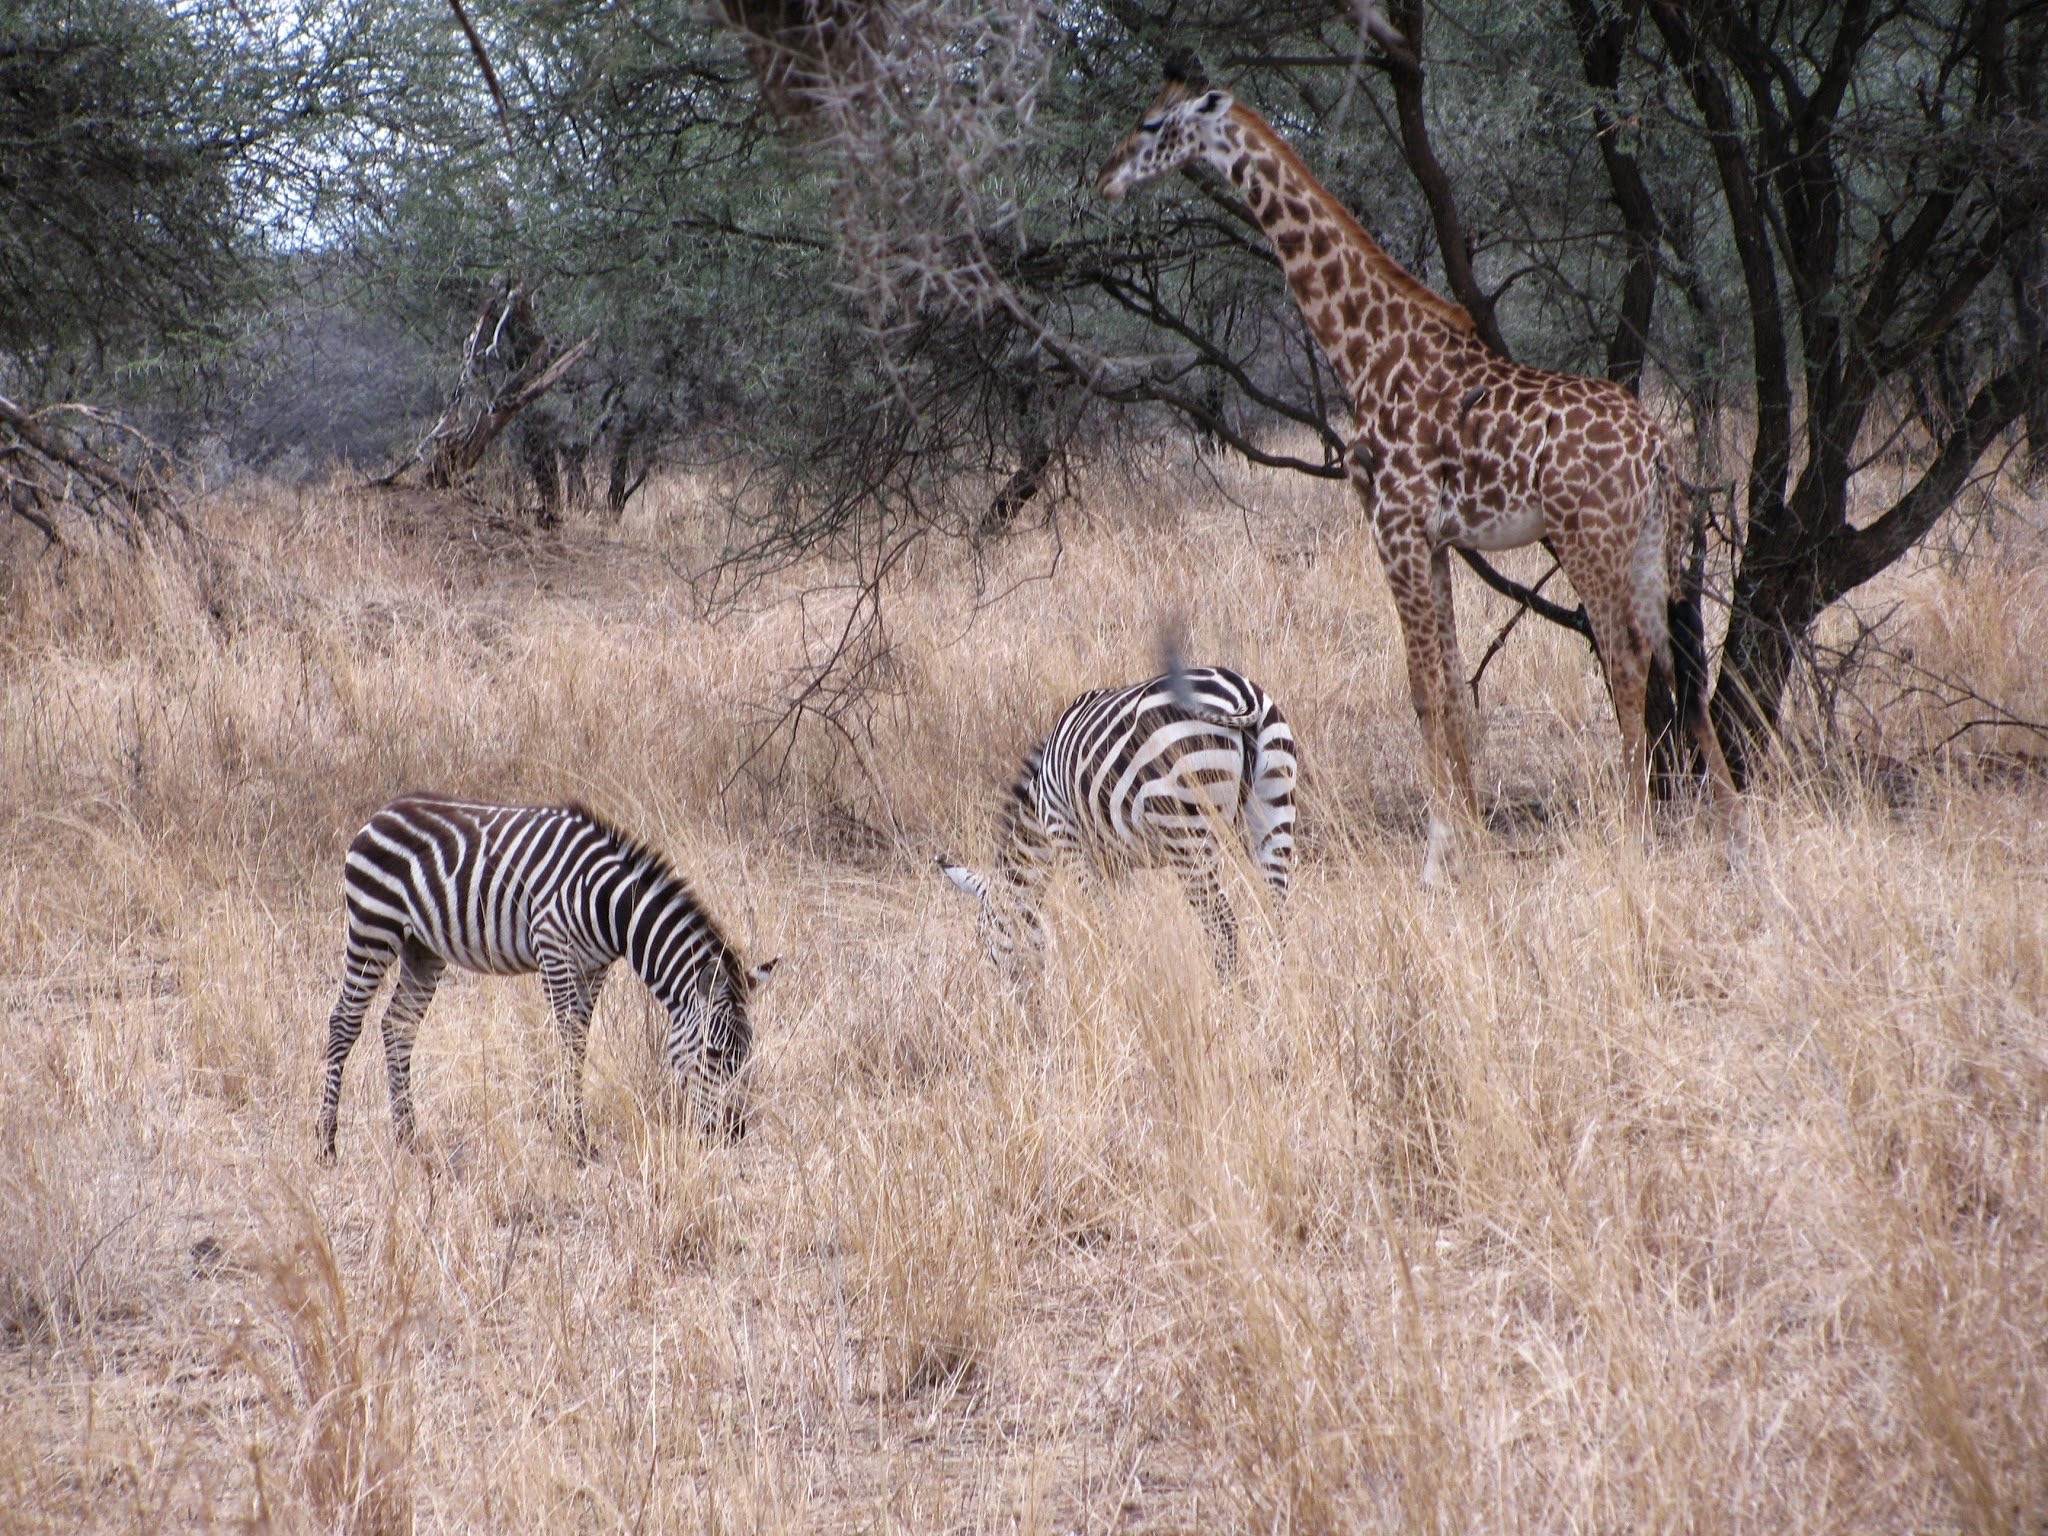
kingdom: Animalia
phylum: Chordata
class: Mammalia
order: Artiodactyla
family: Giraffidae
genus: Giraffa
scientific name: Giraffa tippelskirchi
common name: Masai giraffe
